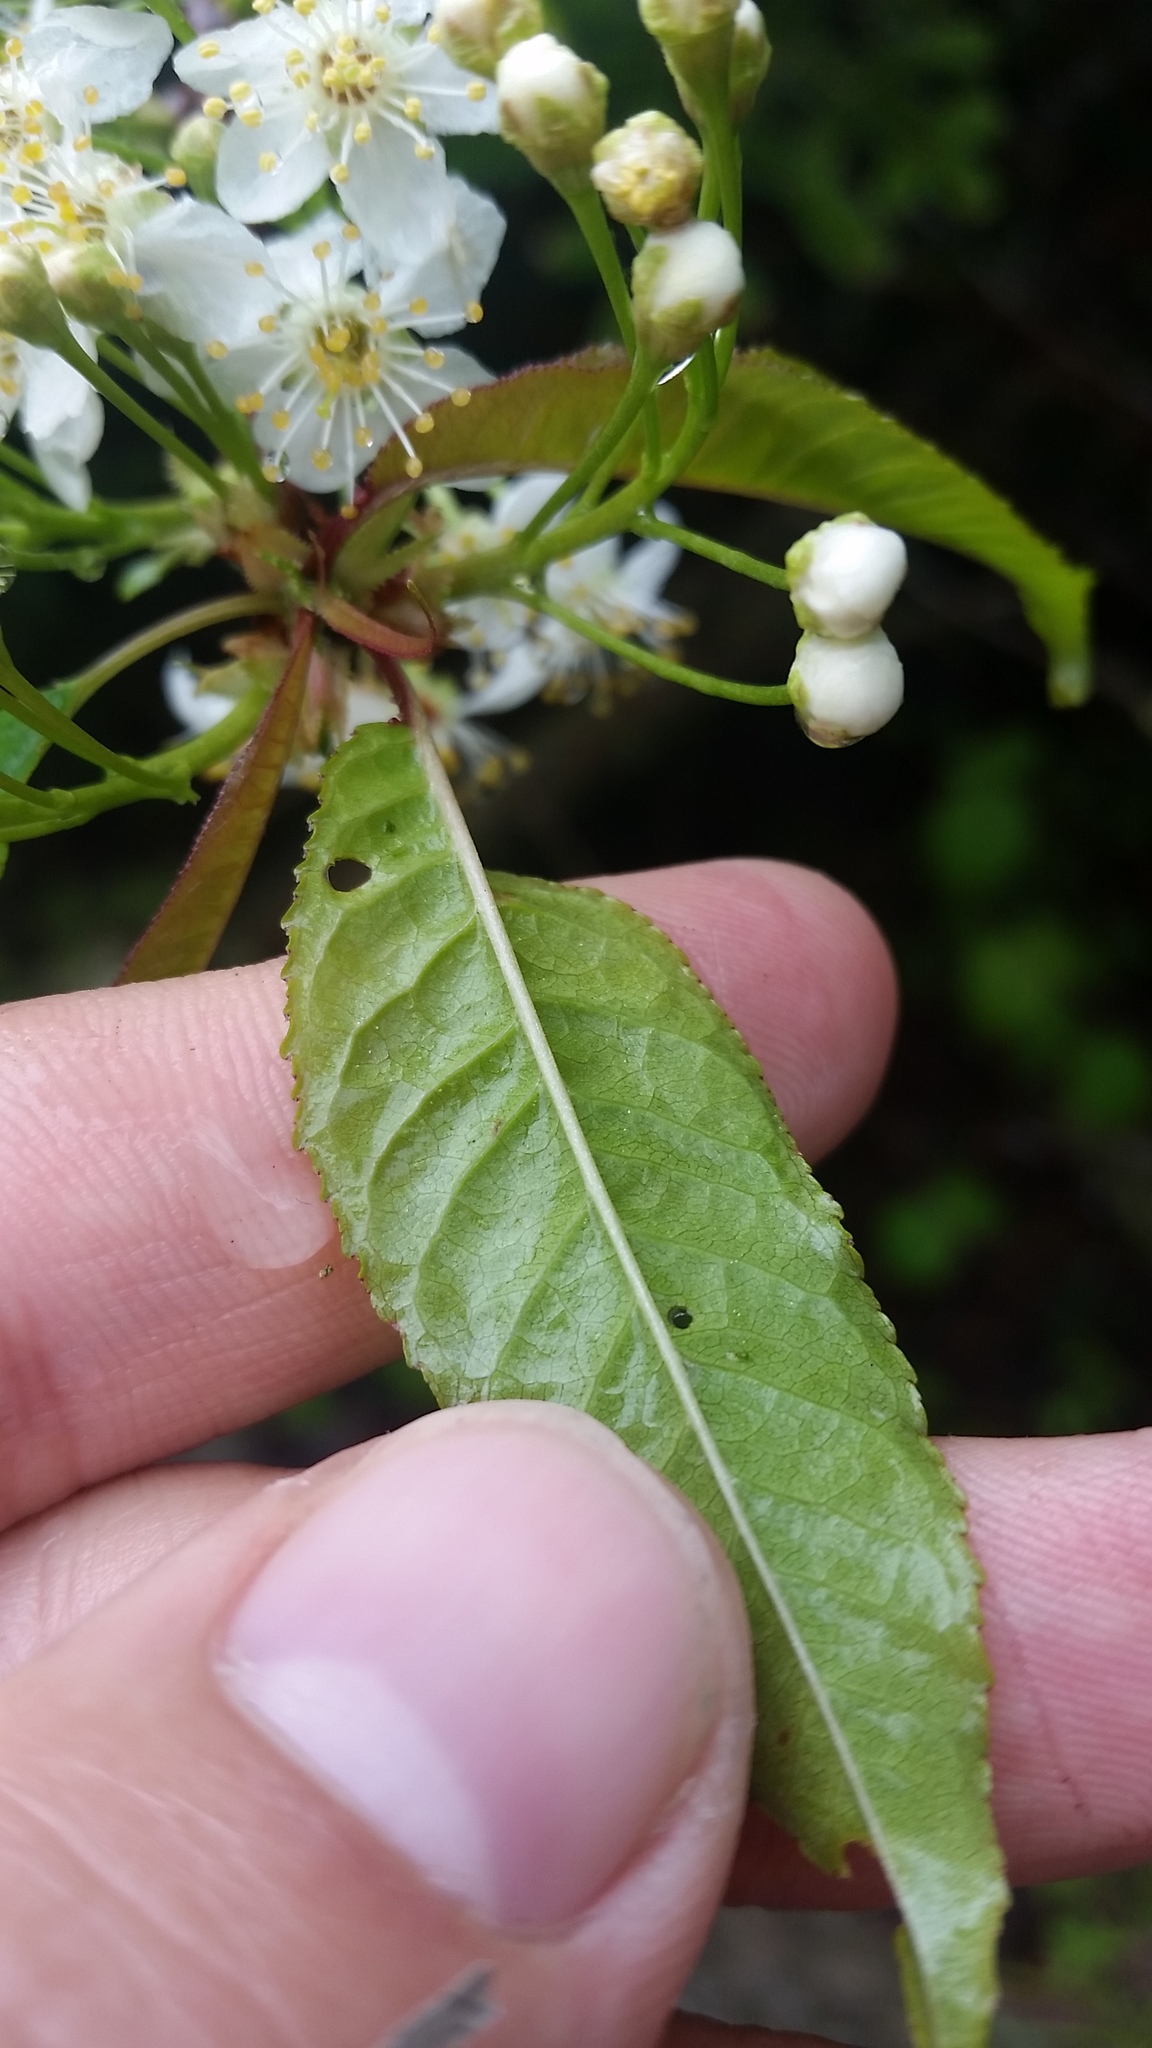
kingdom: Plantae
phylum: Tracheophyta
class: Magnoliopsida
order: Rosales
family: Rosaceae
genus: Prunus
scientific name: Prunus pensylvanica
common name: Pin cherry
